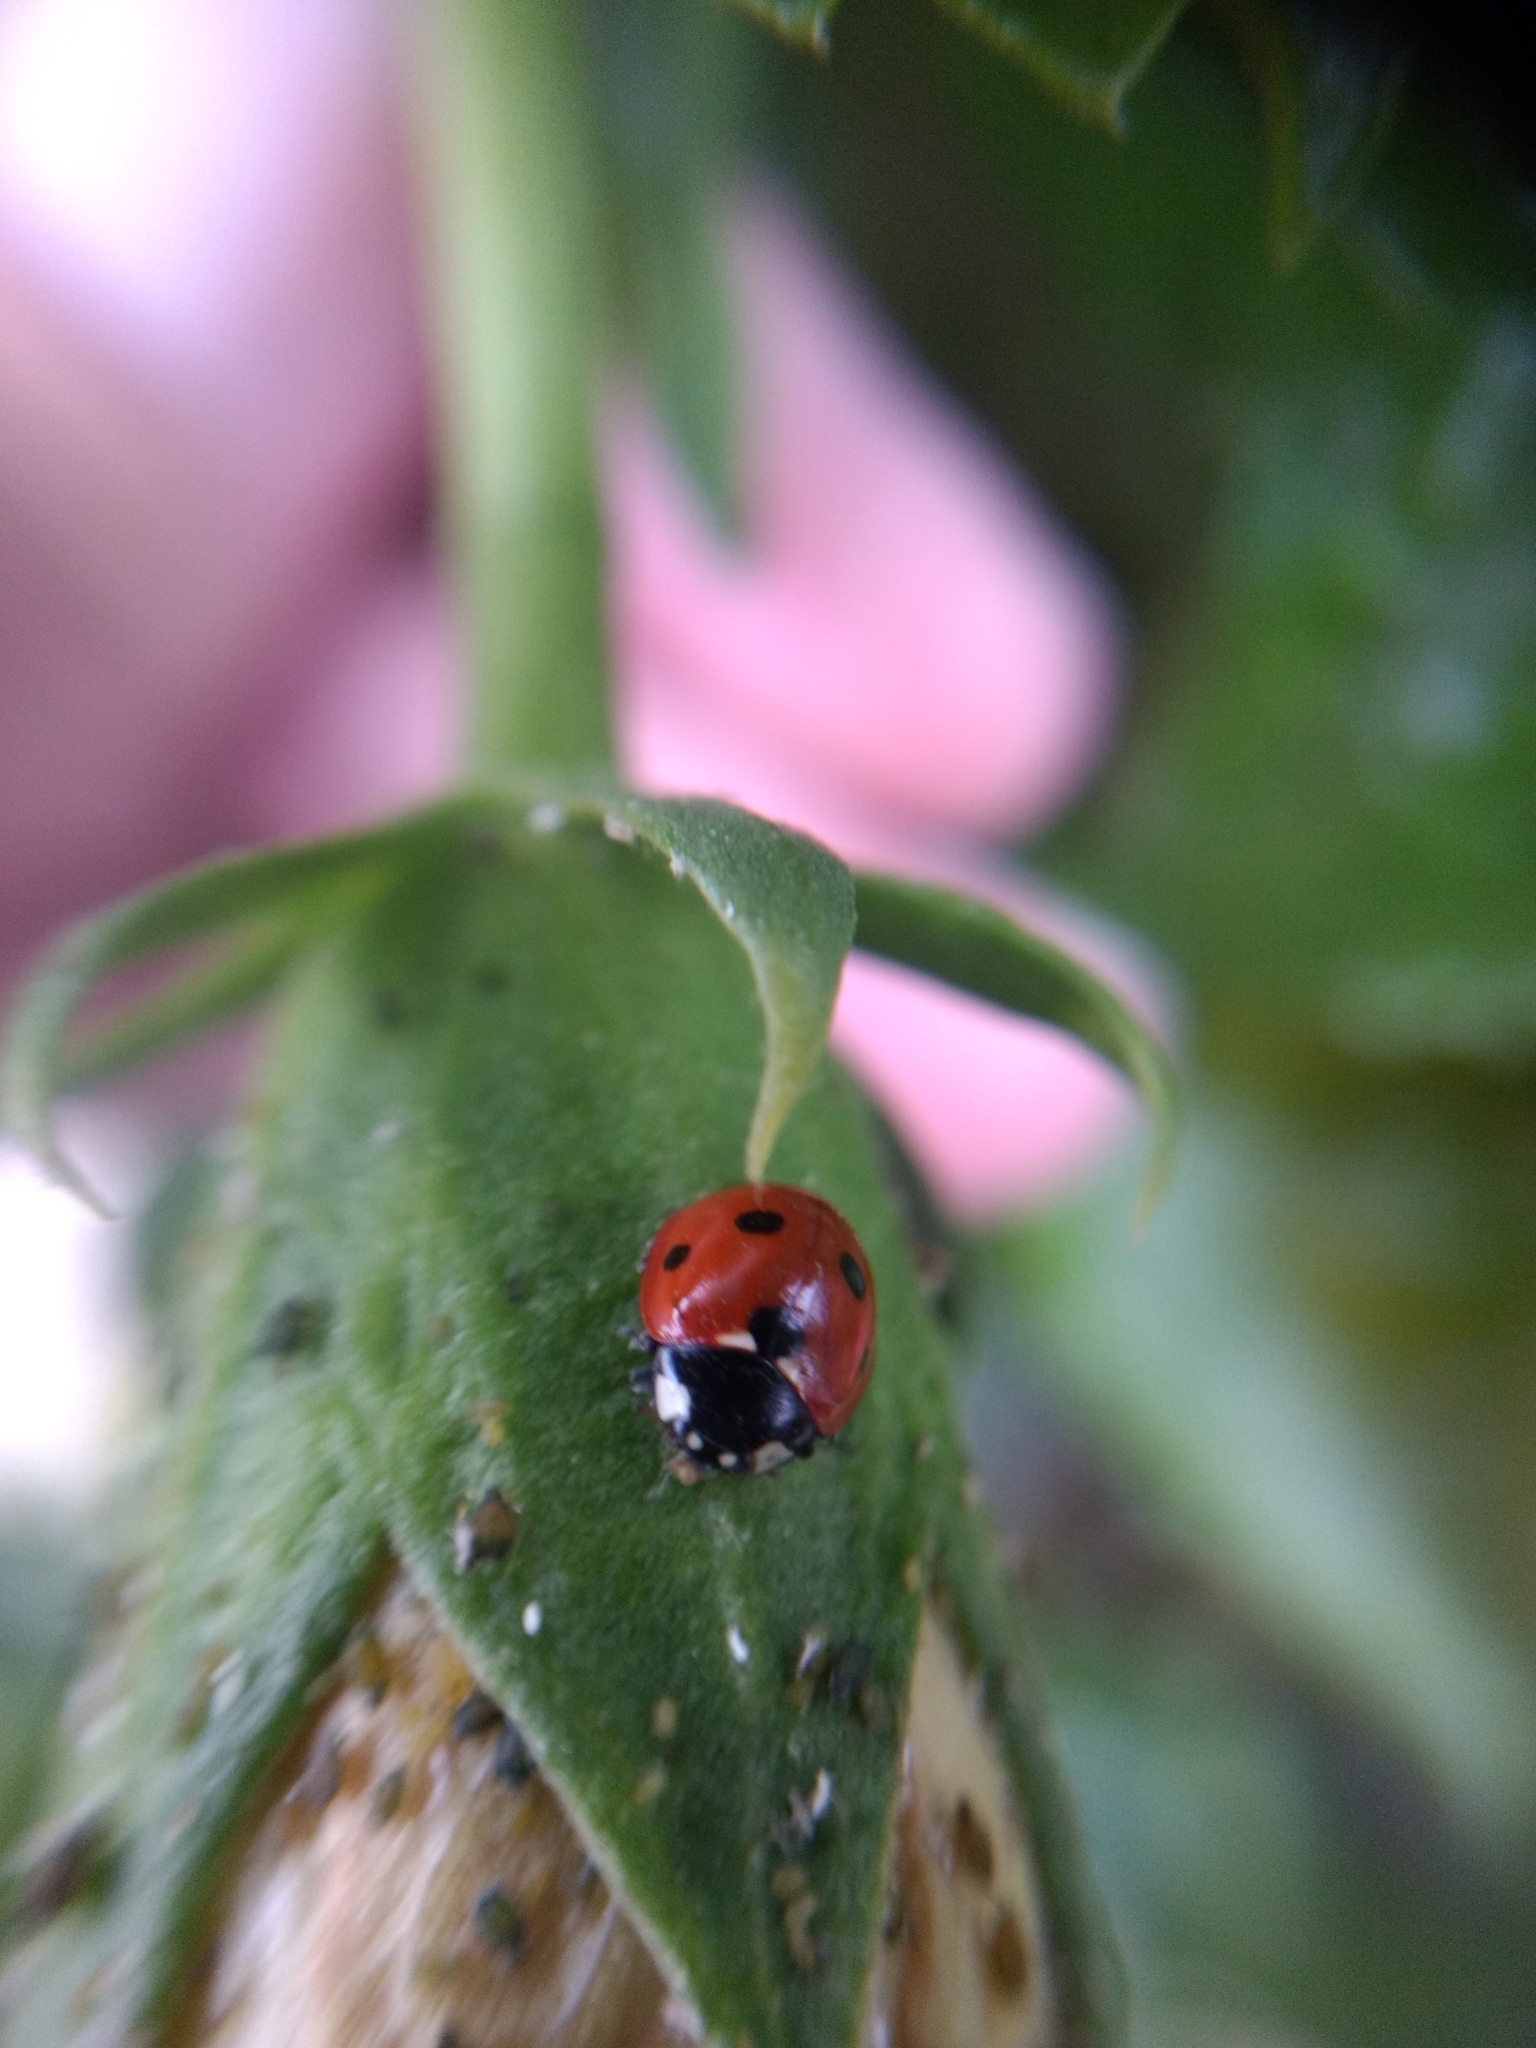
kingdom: Animalia
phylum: Arthropoda
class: Insecta
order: Coleoptera
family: Coccinellidae
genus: Coccinella
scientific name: Coccinella septempunctata
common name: Sevenspotted lady beetle
